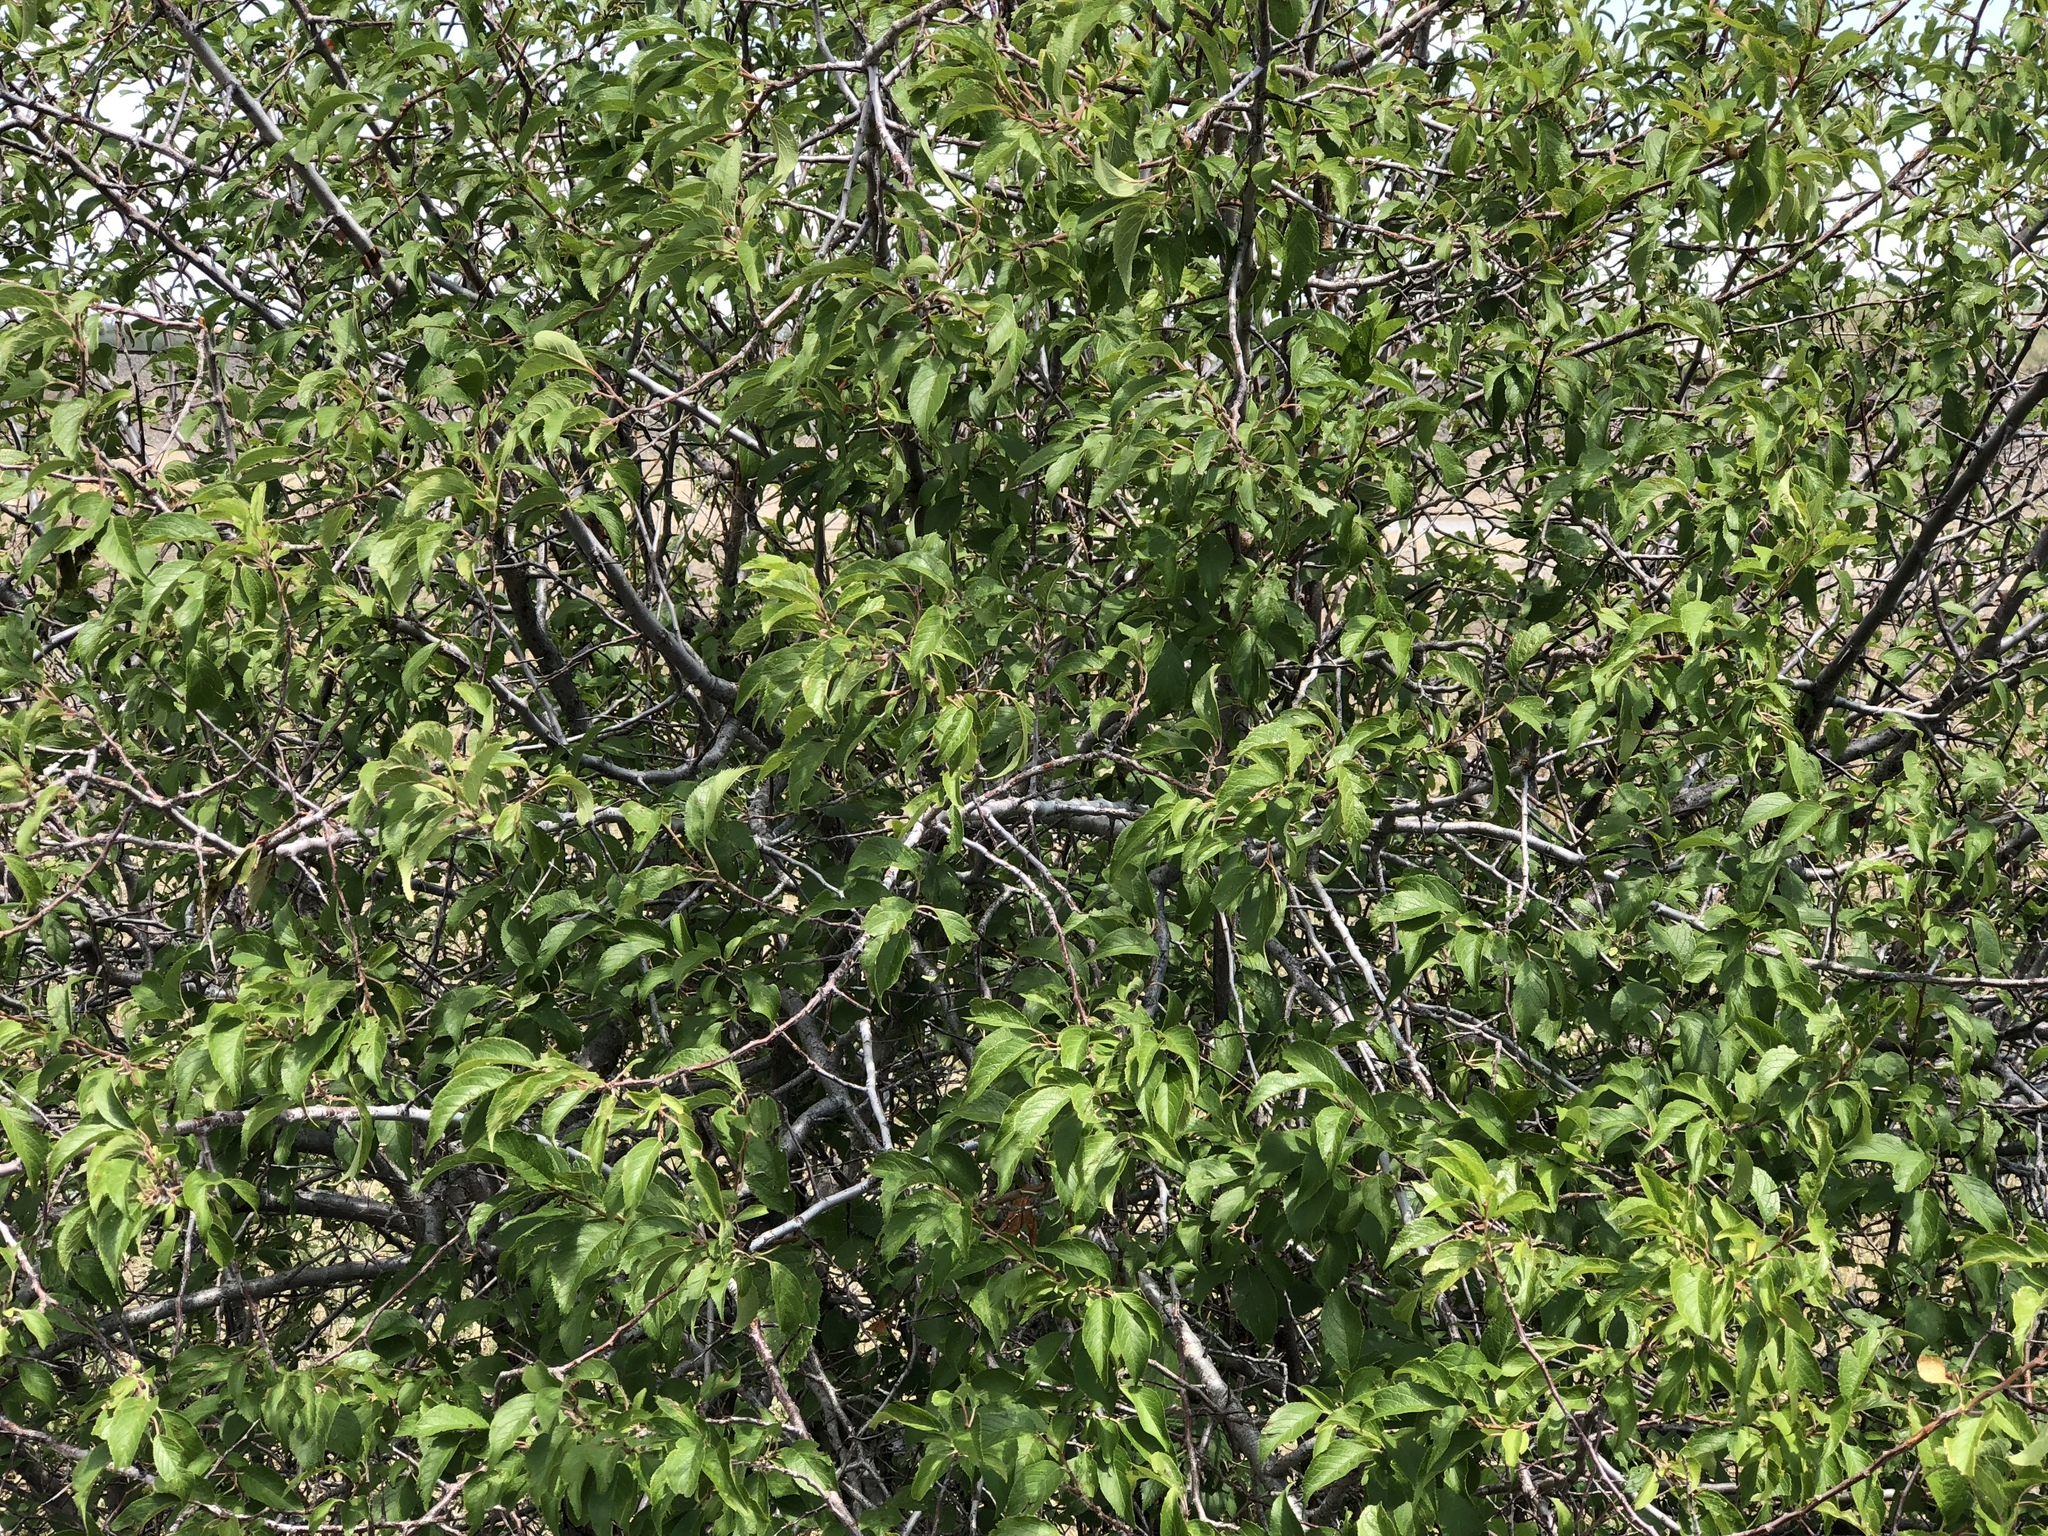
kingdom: Plantae
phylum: Tracheophyta
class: Magnoliopsida
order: Rosales
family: Rosaceae
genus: Prunus
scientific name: Prunus americana
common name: American plum
